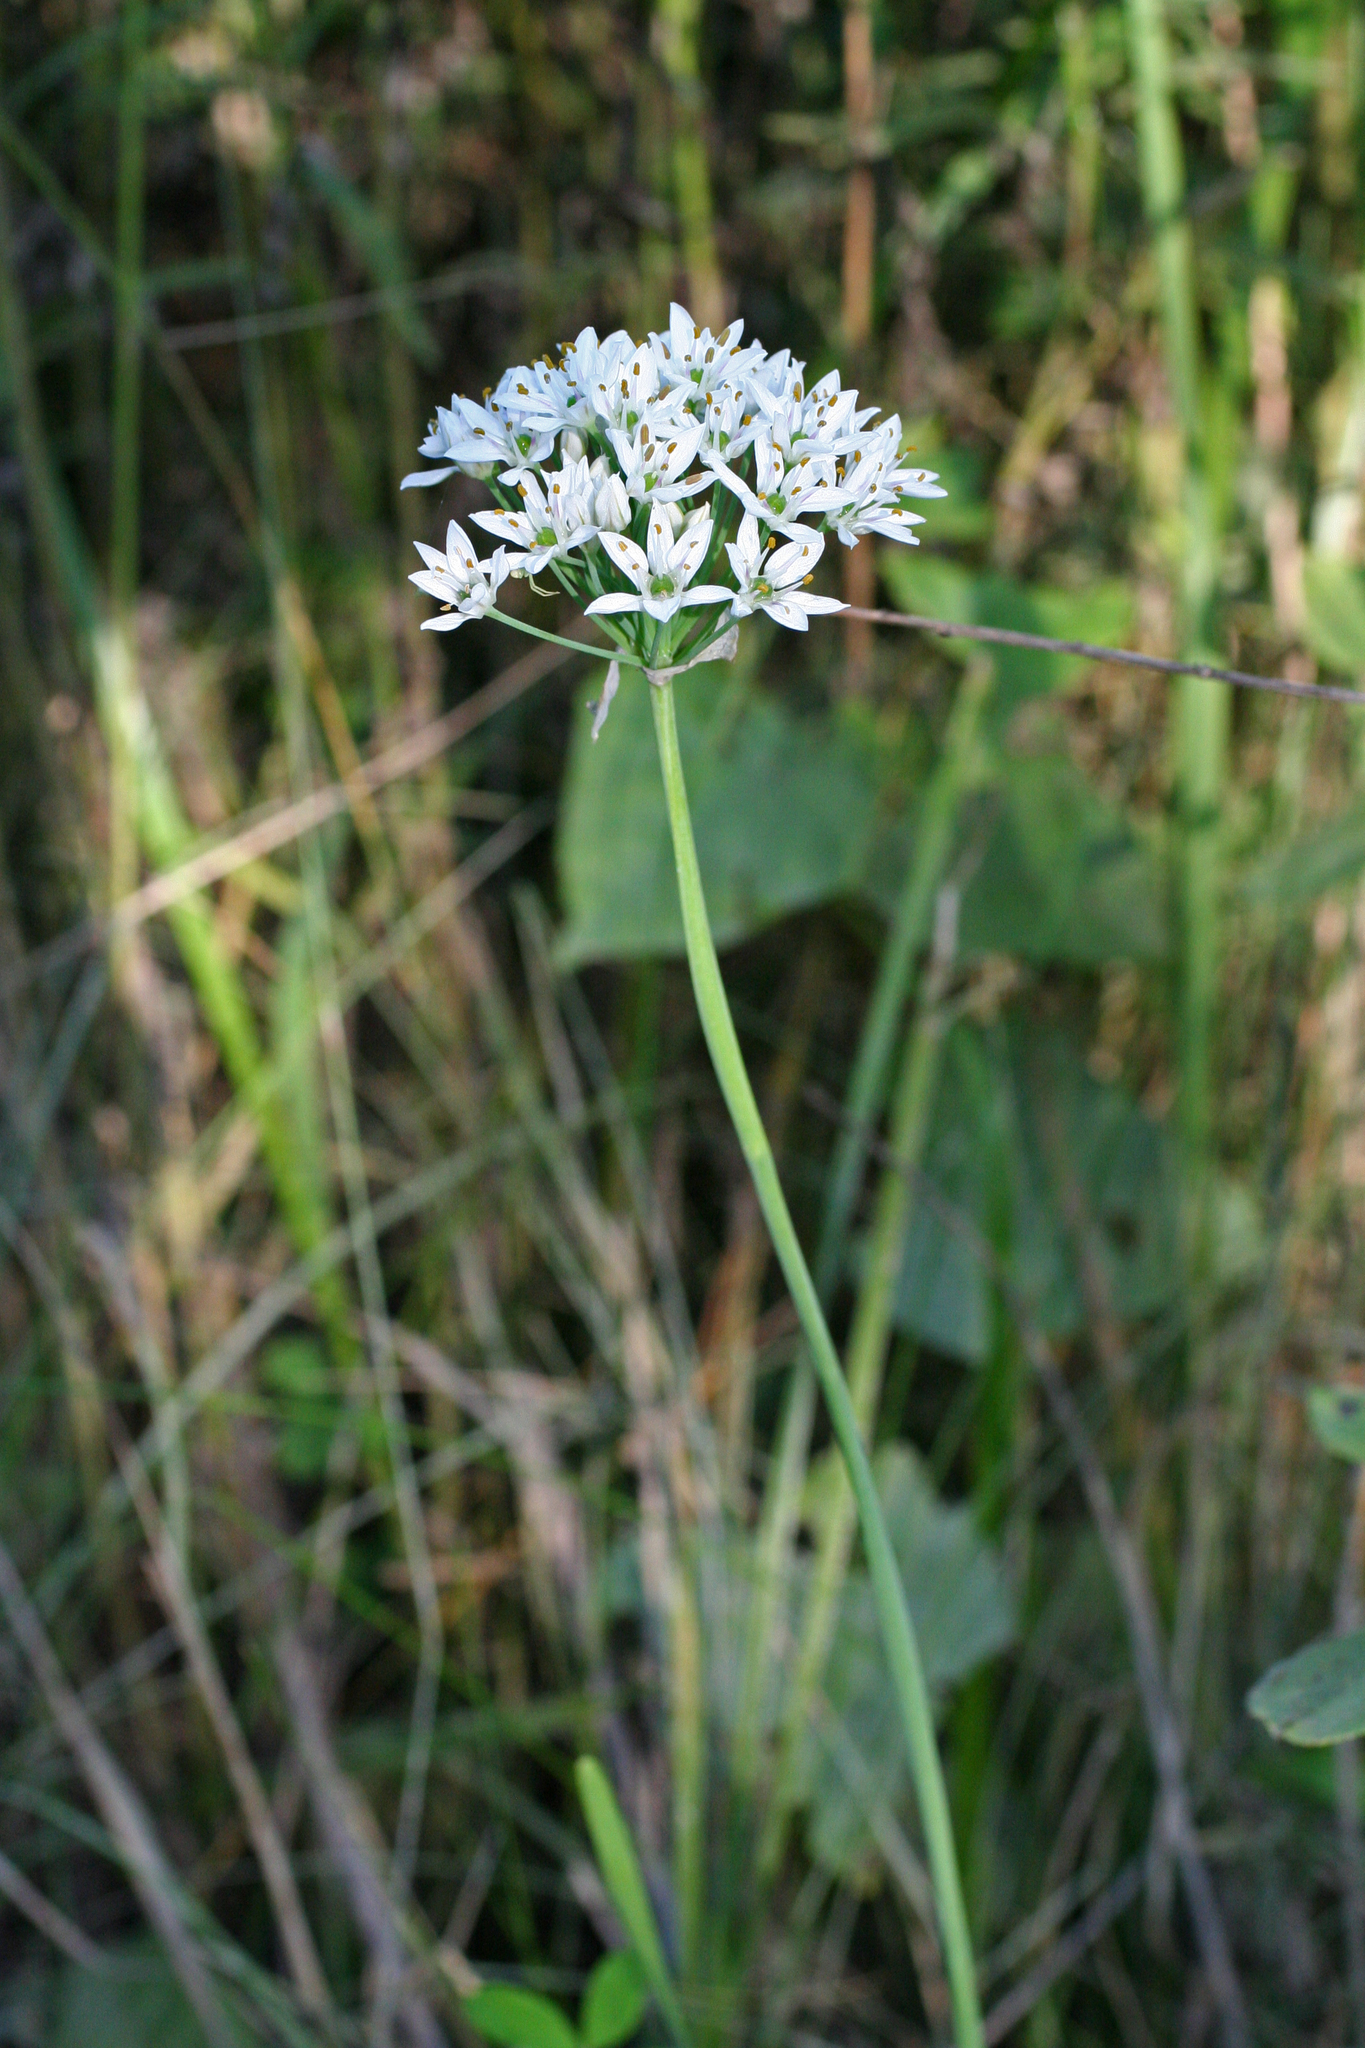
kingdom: Plantae
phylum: Tracheophyta
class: Liliopsida
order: Asparagales
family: Amaryllidaceae
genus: Allium
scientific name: Allium ramosum
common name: Fragrant garlic
